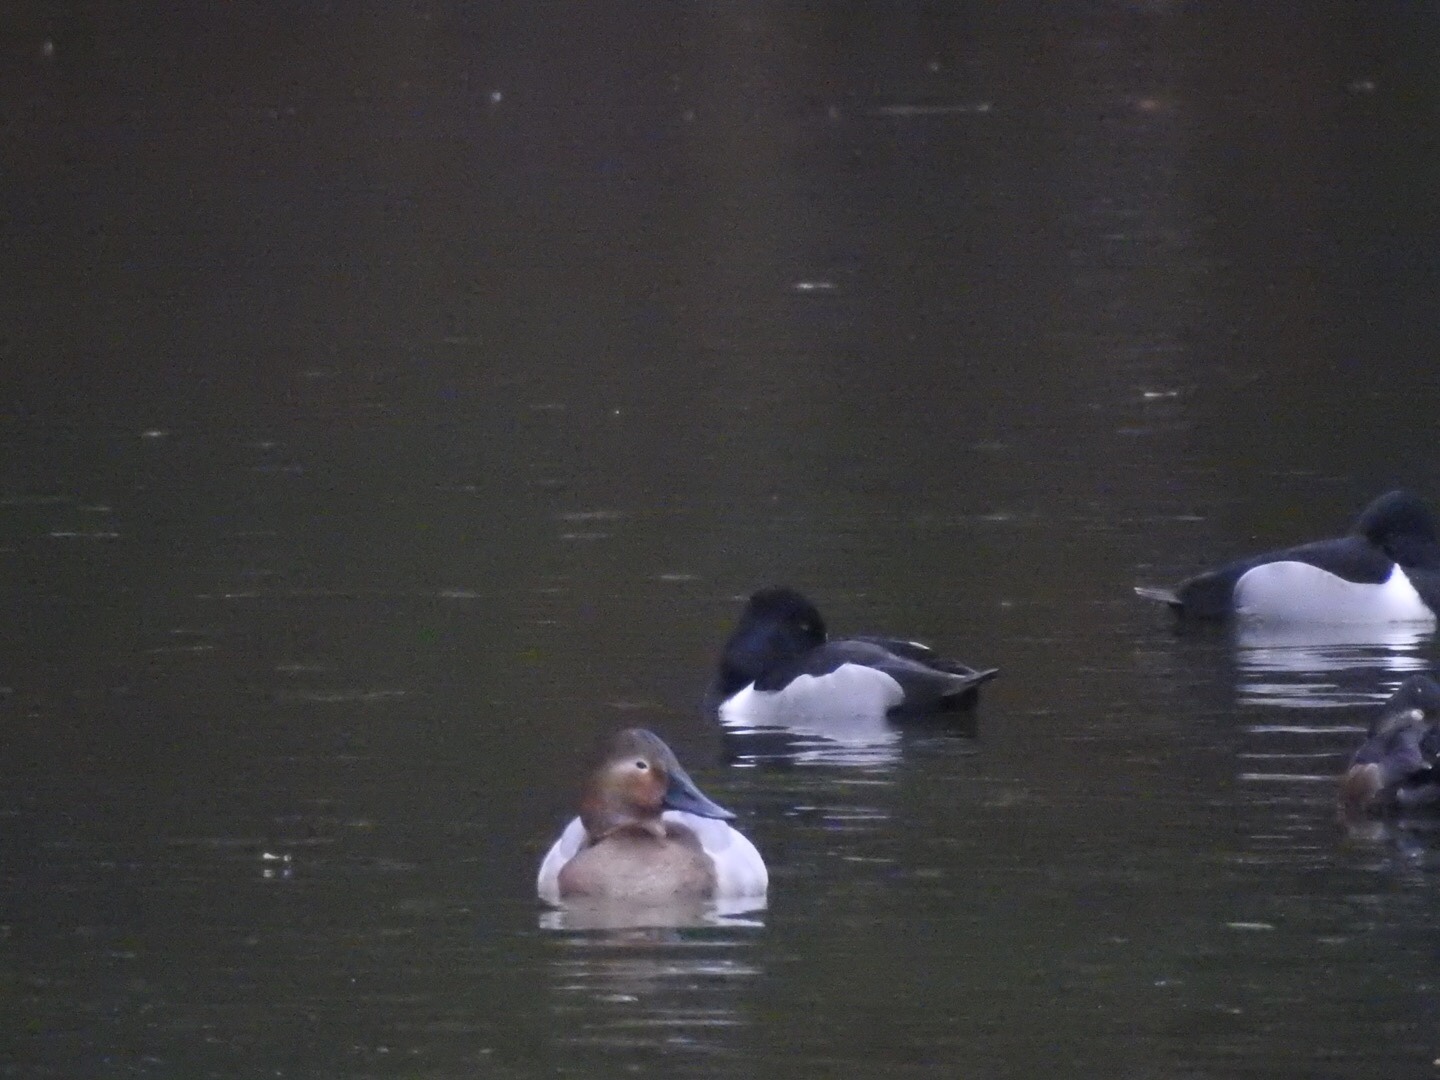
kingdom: Animalia
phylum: Chordata
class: Aves
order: Anseriformes
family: Anatidae
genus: Aythya
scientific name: Aythya valisineria
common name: Canvasback
